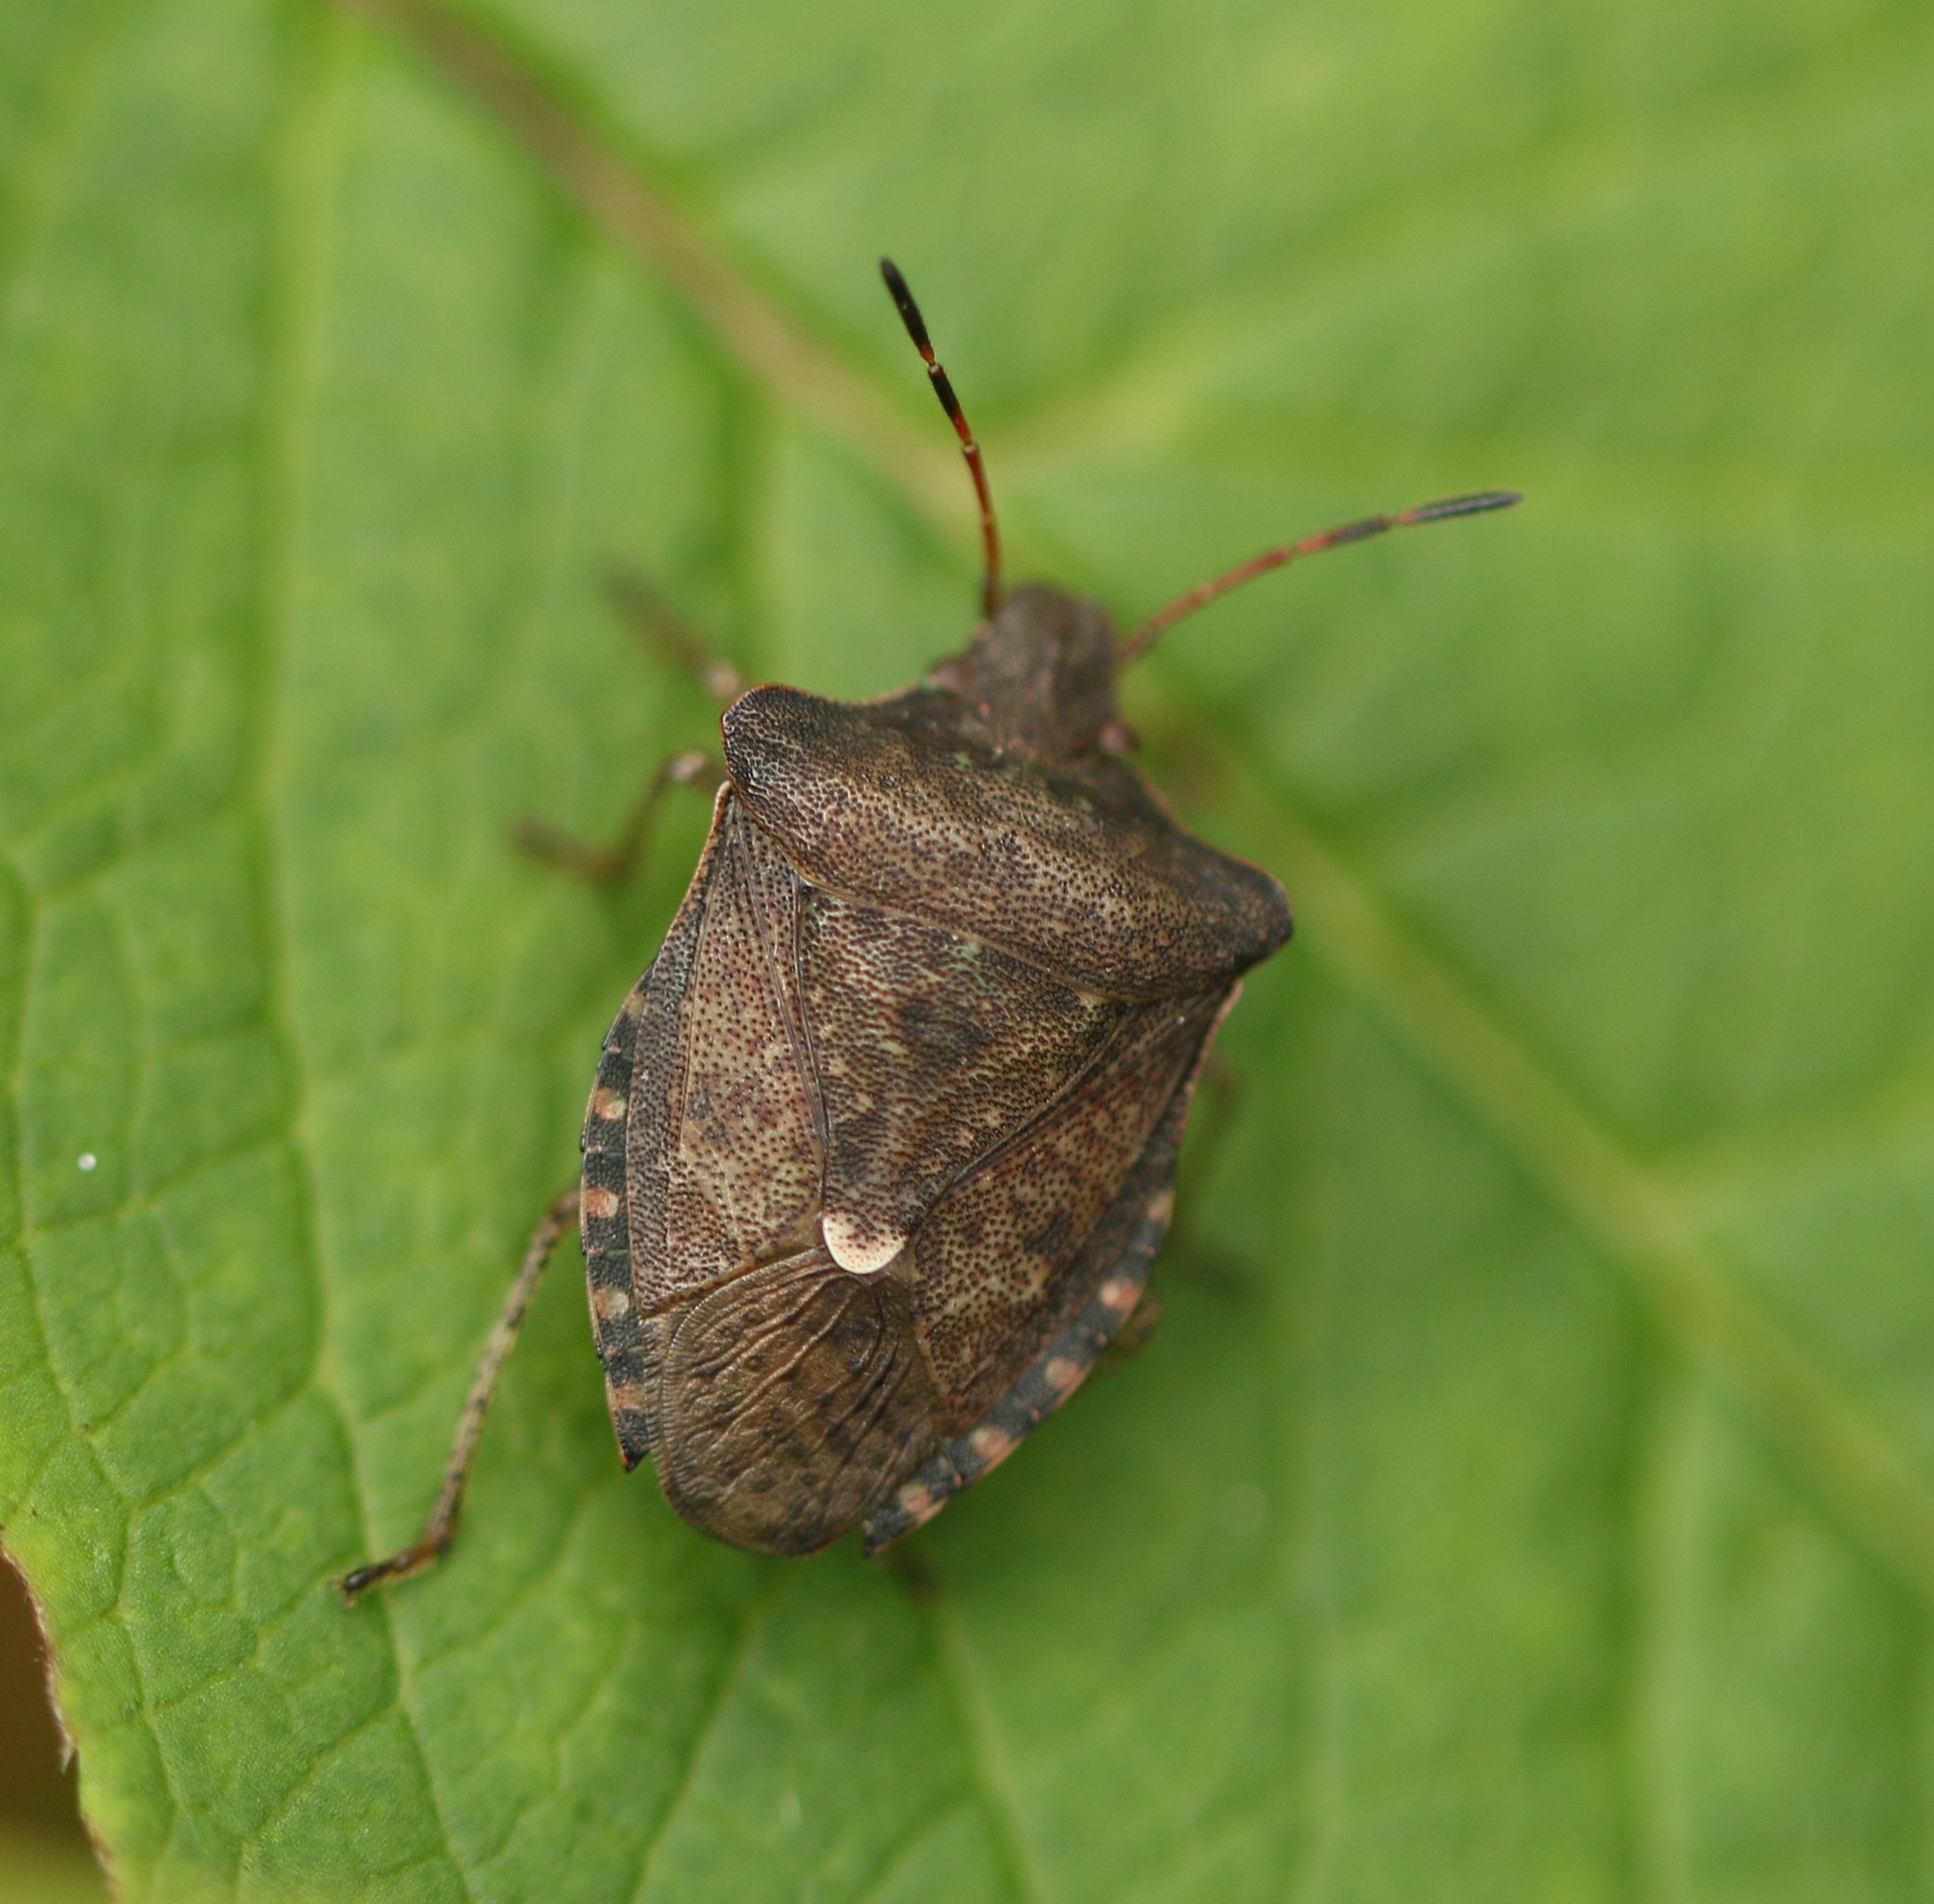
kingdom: Animalia
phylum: Arthropoda
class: Insecta
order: Hemiptera
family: Pentatomidae
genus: Euschistus
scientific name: Euschistus tristigmus
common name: Dusky stink bug
